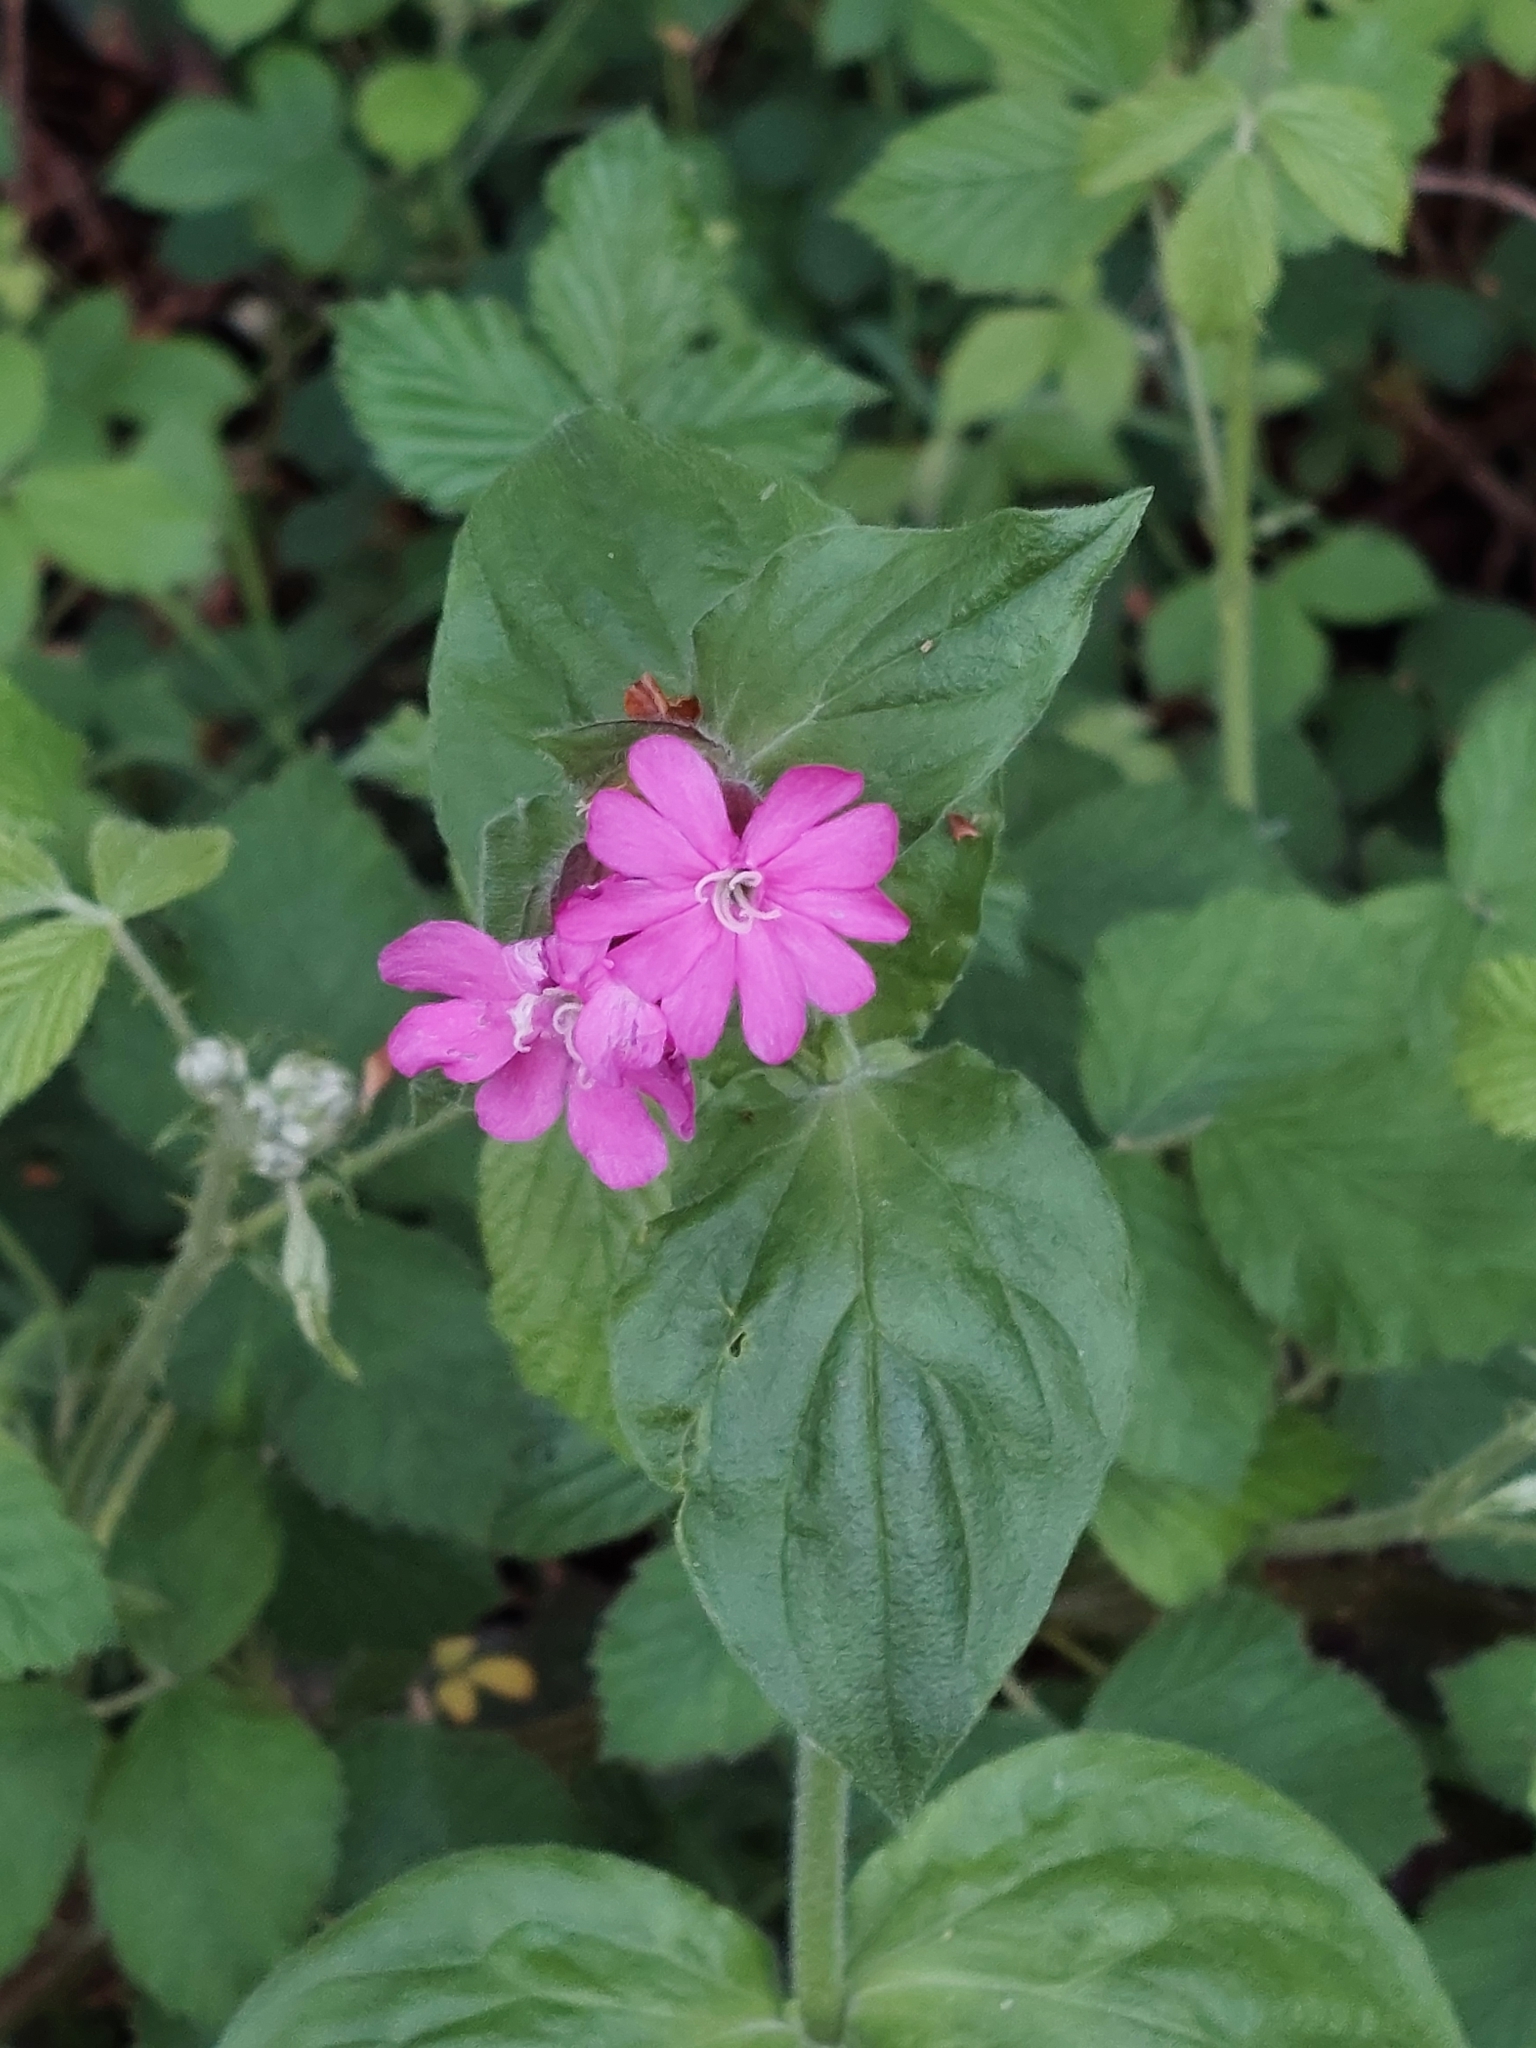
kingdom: Plantae
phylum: Tracheophyta
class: Magnoliopsida
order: Caryophyllales
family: Caryophyllaceae
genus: Silene
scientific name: Silene dioica
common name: Red campion
